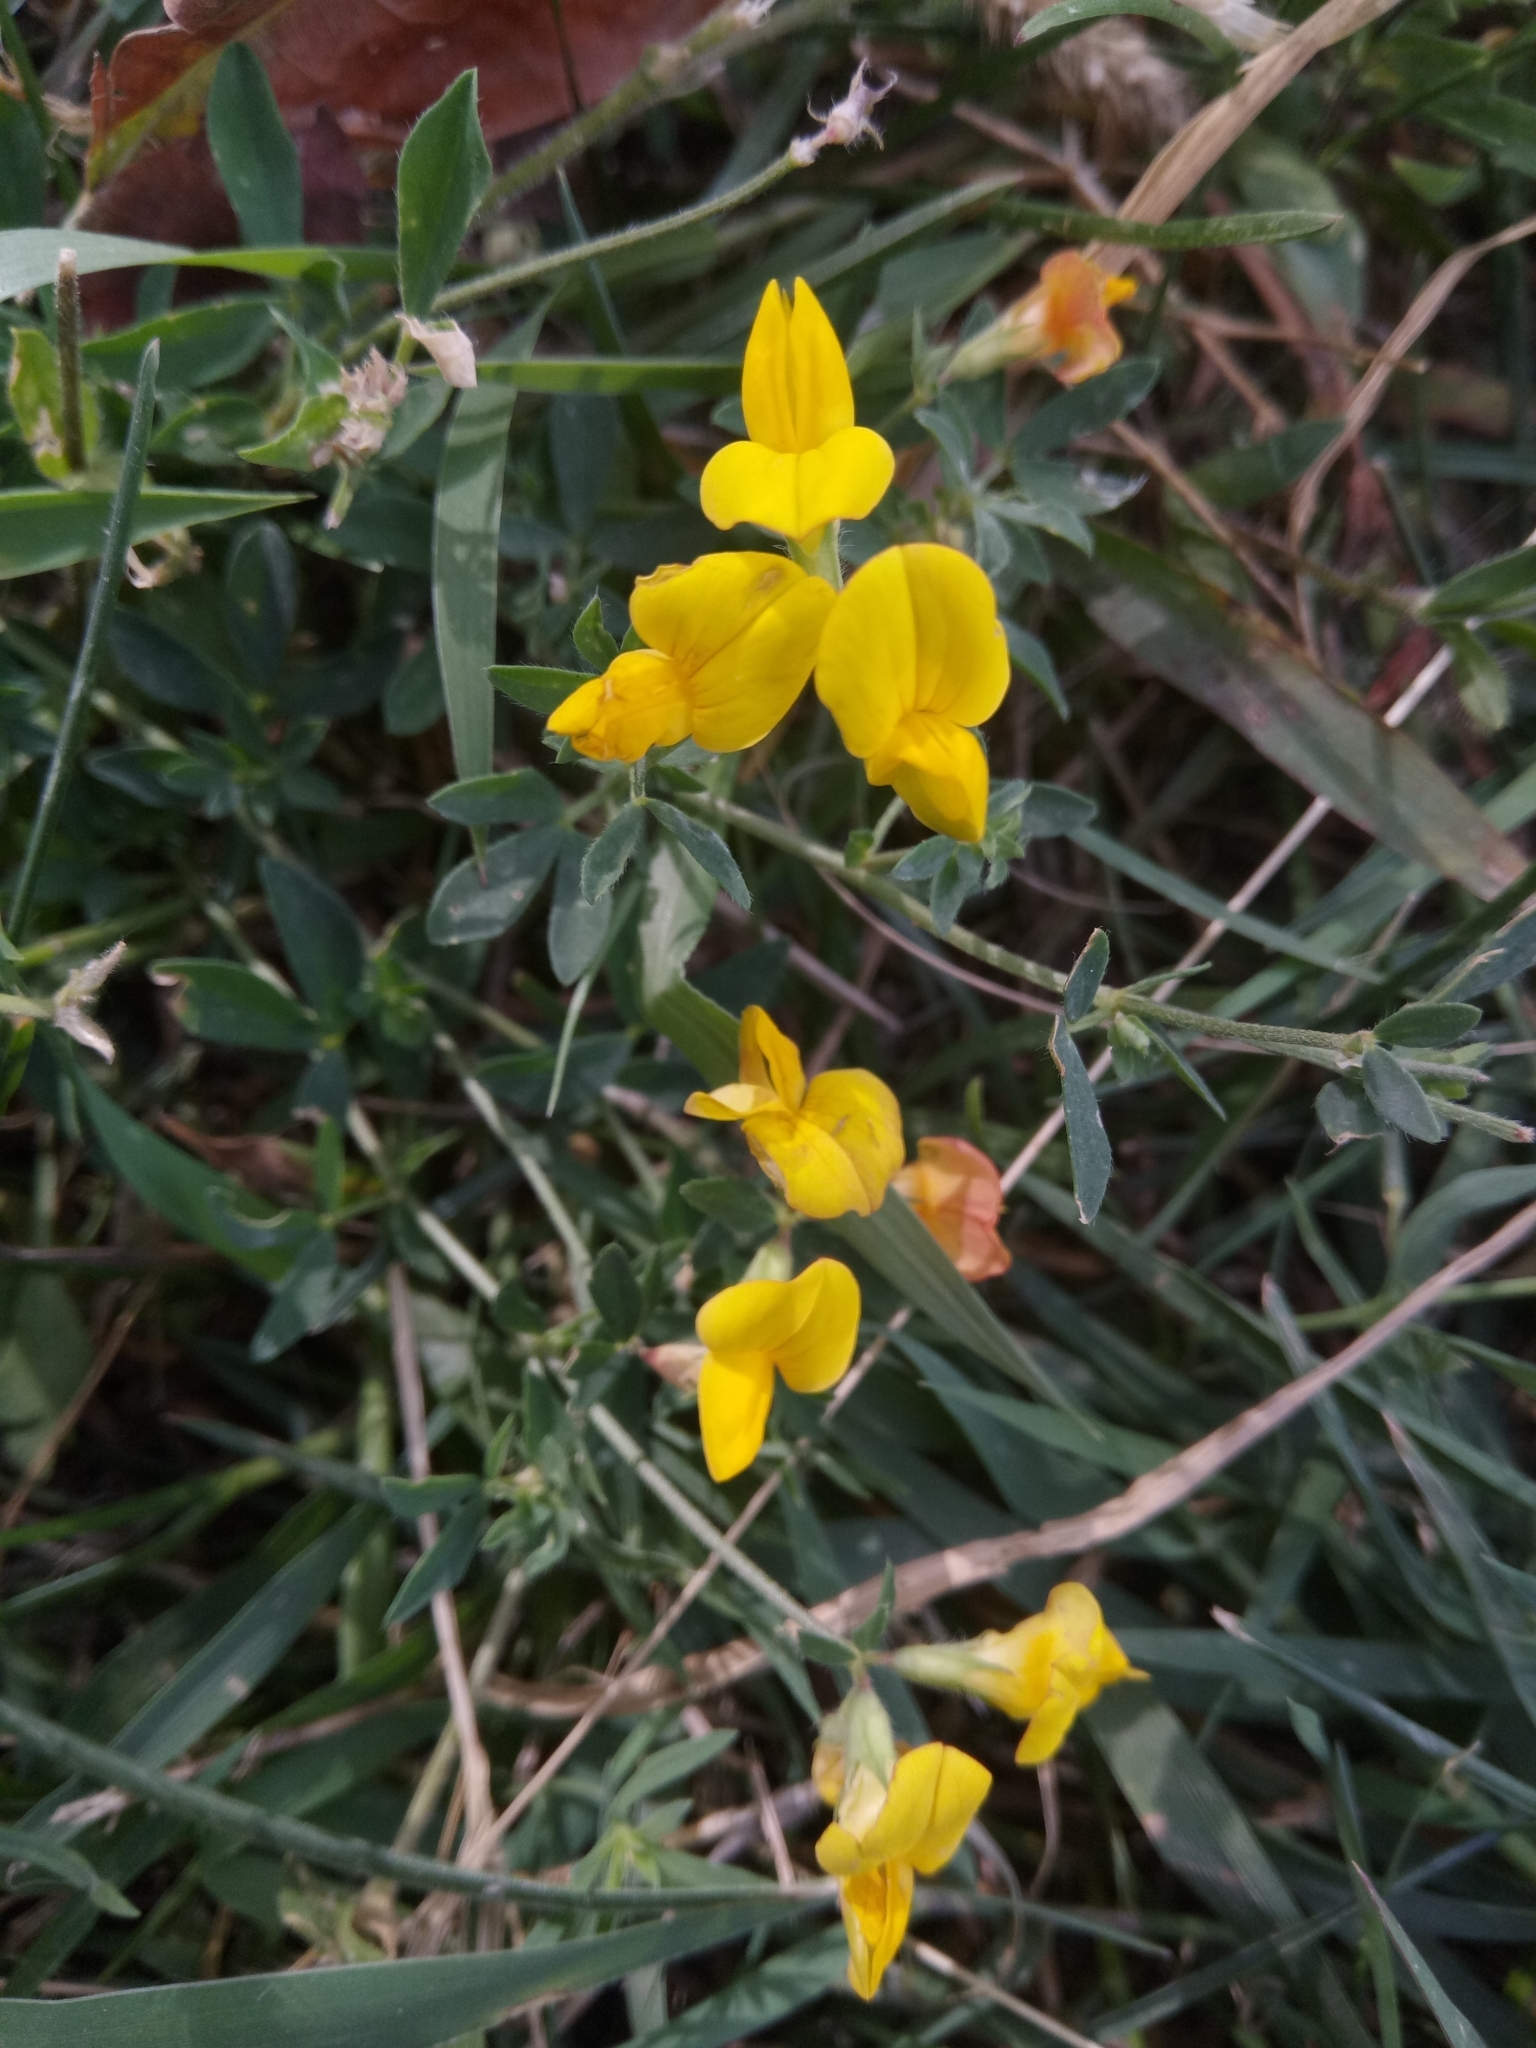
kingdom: Plantae
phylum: Tracheophyta
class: Magnoliopsida
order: Fabales
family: Fabaceae
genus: Lotus
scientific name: Lotus corniculatus
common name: Common bird's-foot-trefoil
